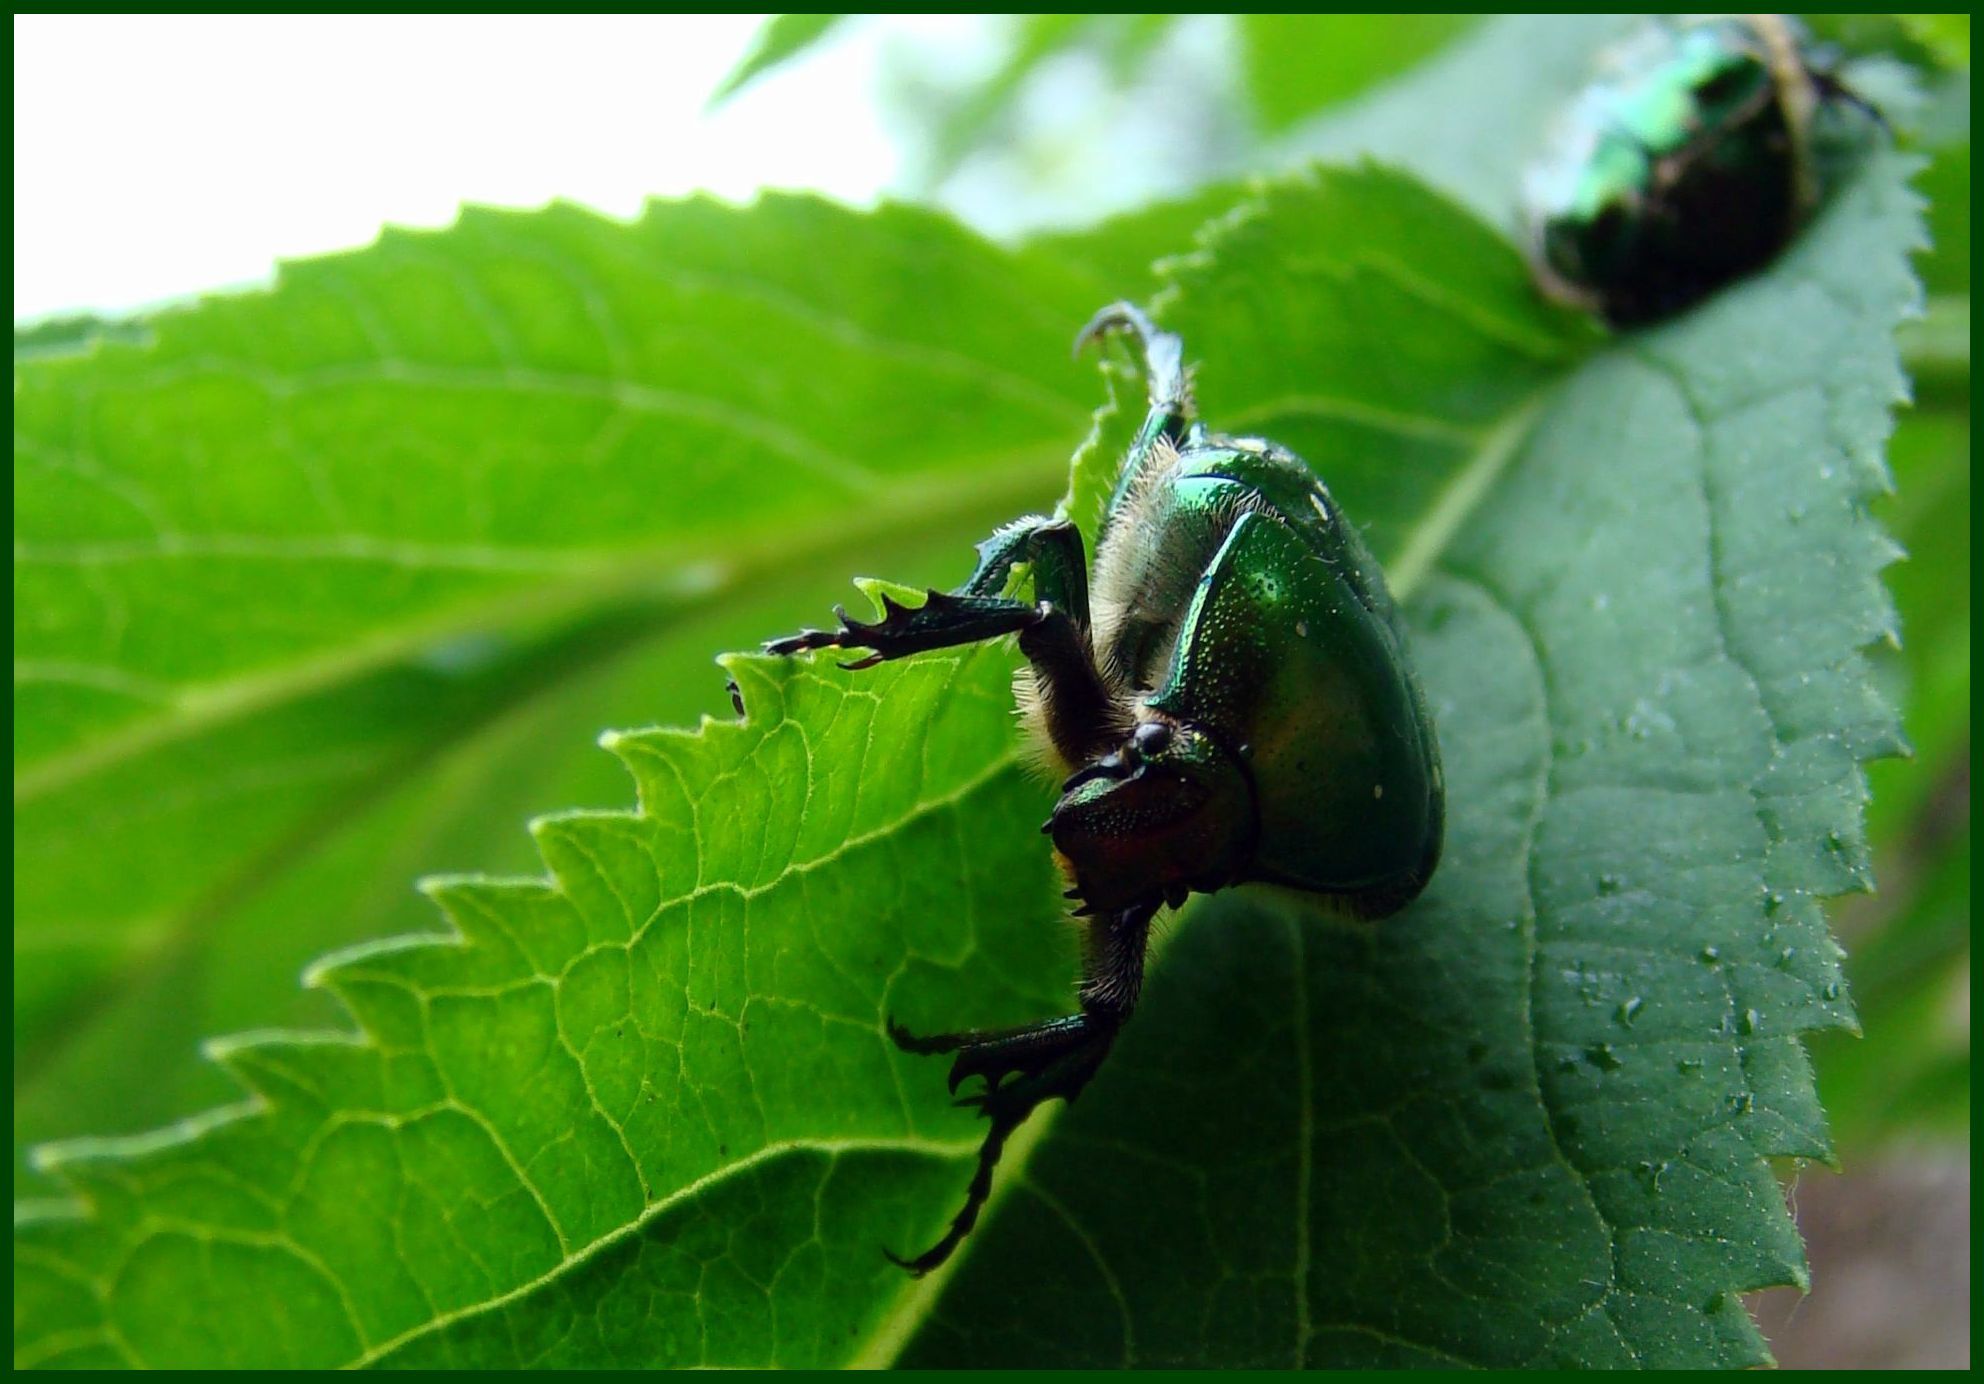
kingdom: Animalia
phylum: Arthropoda
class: Insecta
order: Coleoptera
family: Scarabaeidae
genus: Cetonia
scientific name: Cetonia aurata
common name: Rose chafer
